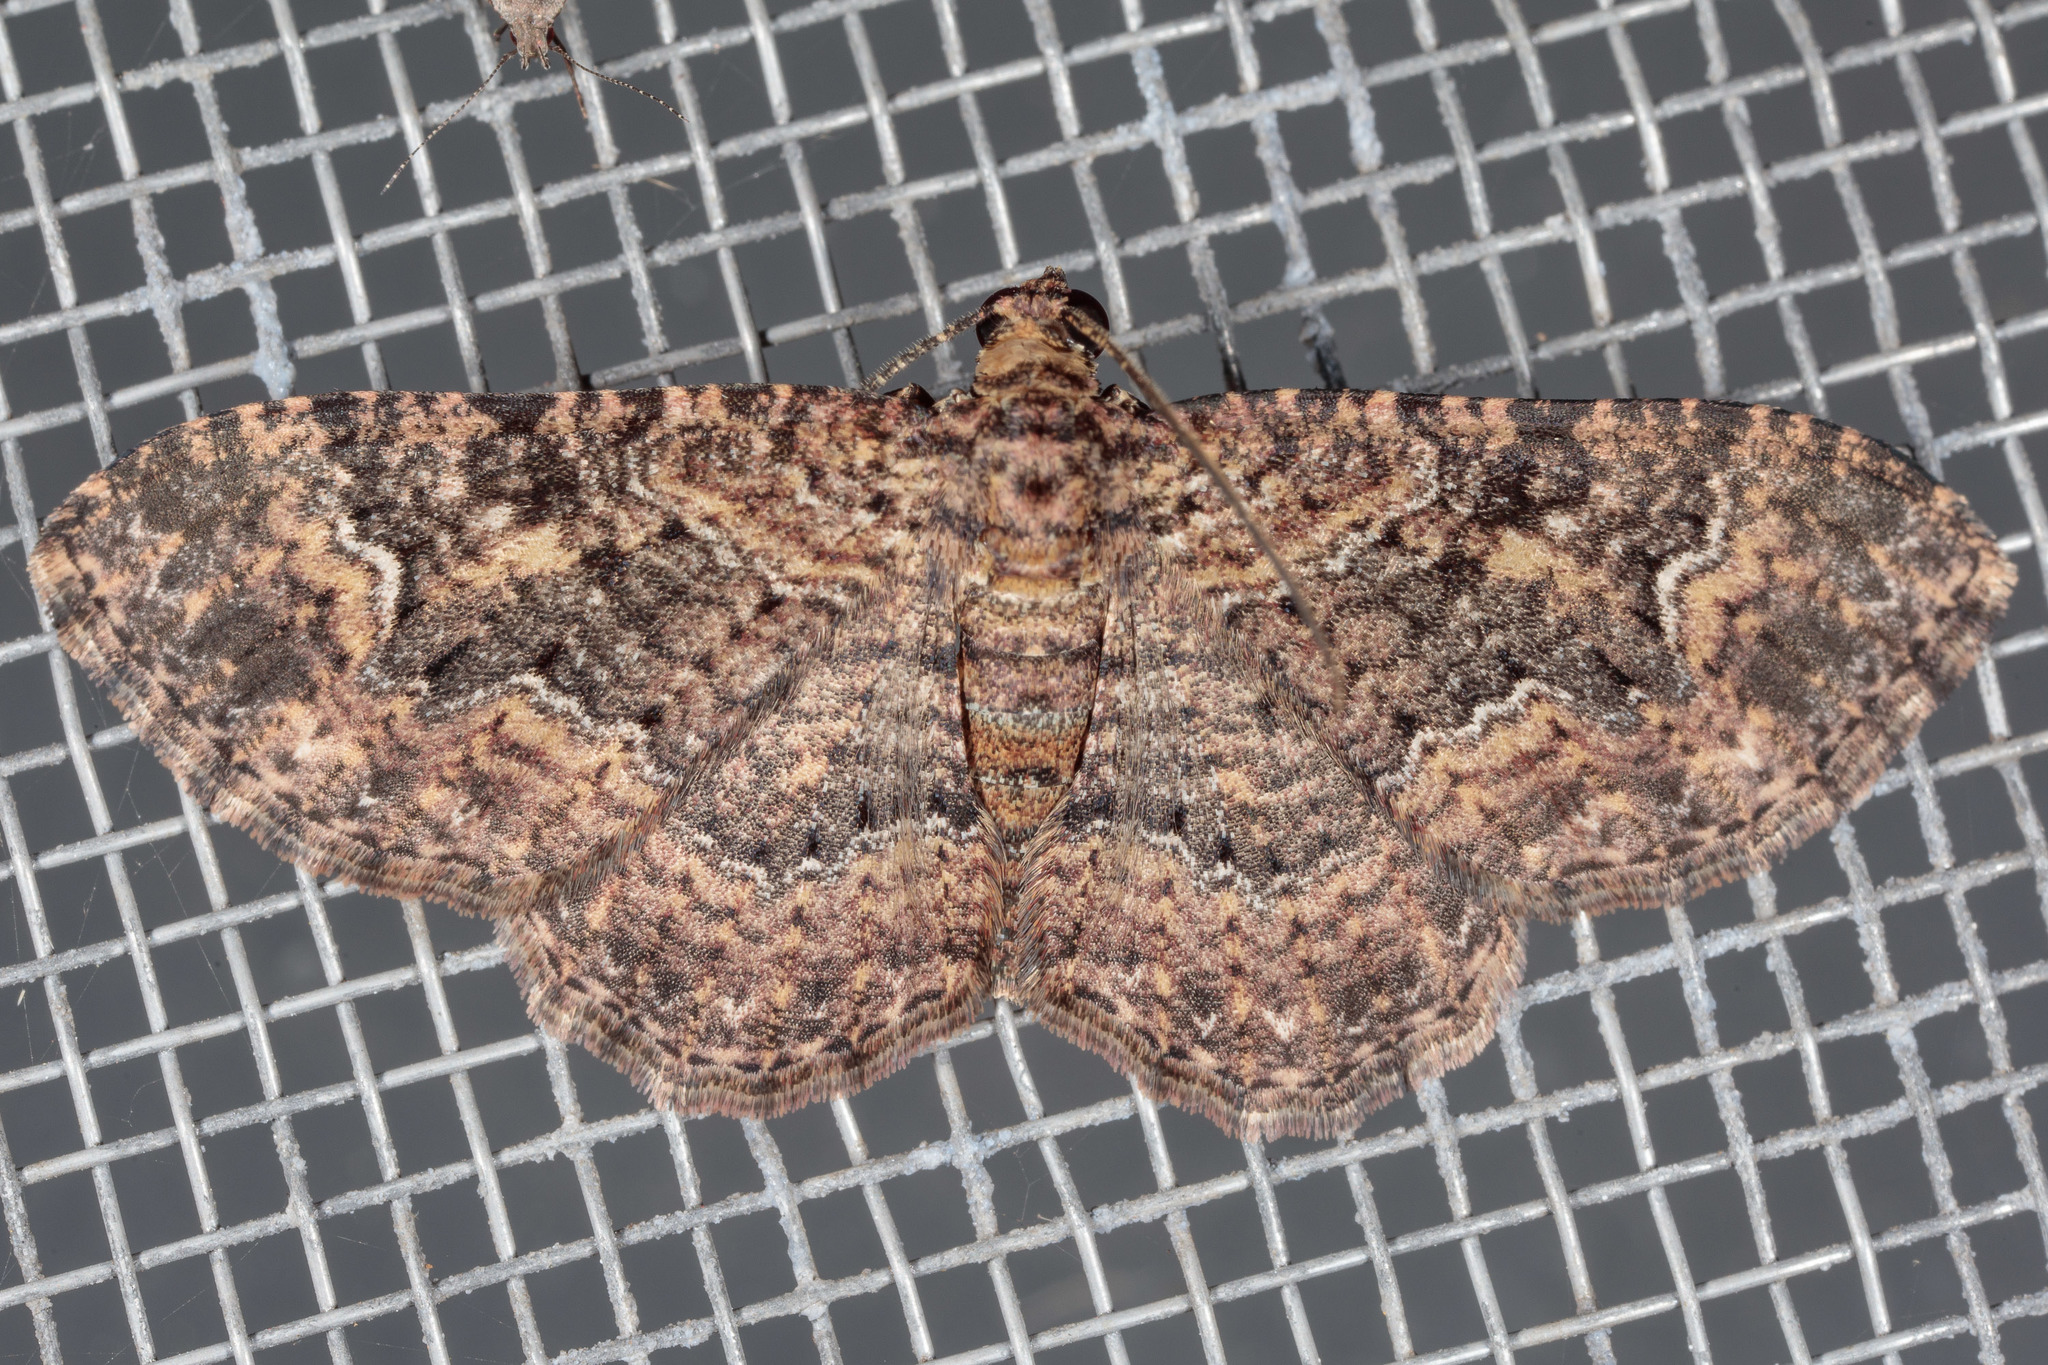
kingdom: Animalia
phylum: Arthropoda
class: Insecta
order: Lepidoptera
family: Geometridae
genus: Disclisioprocta
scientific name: Disclisioprocta stellata
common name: Somber carpet
